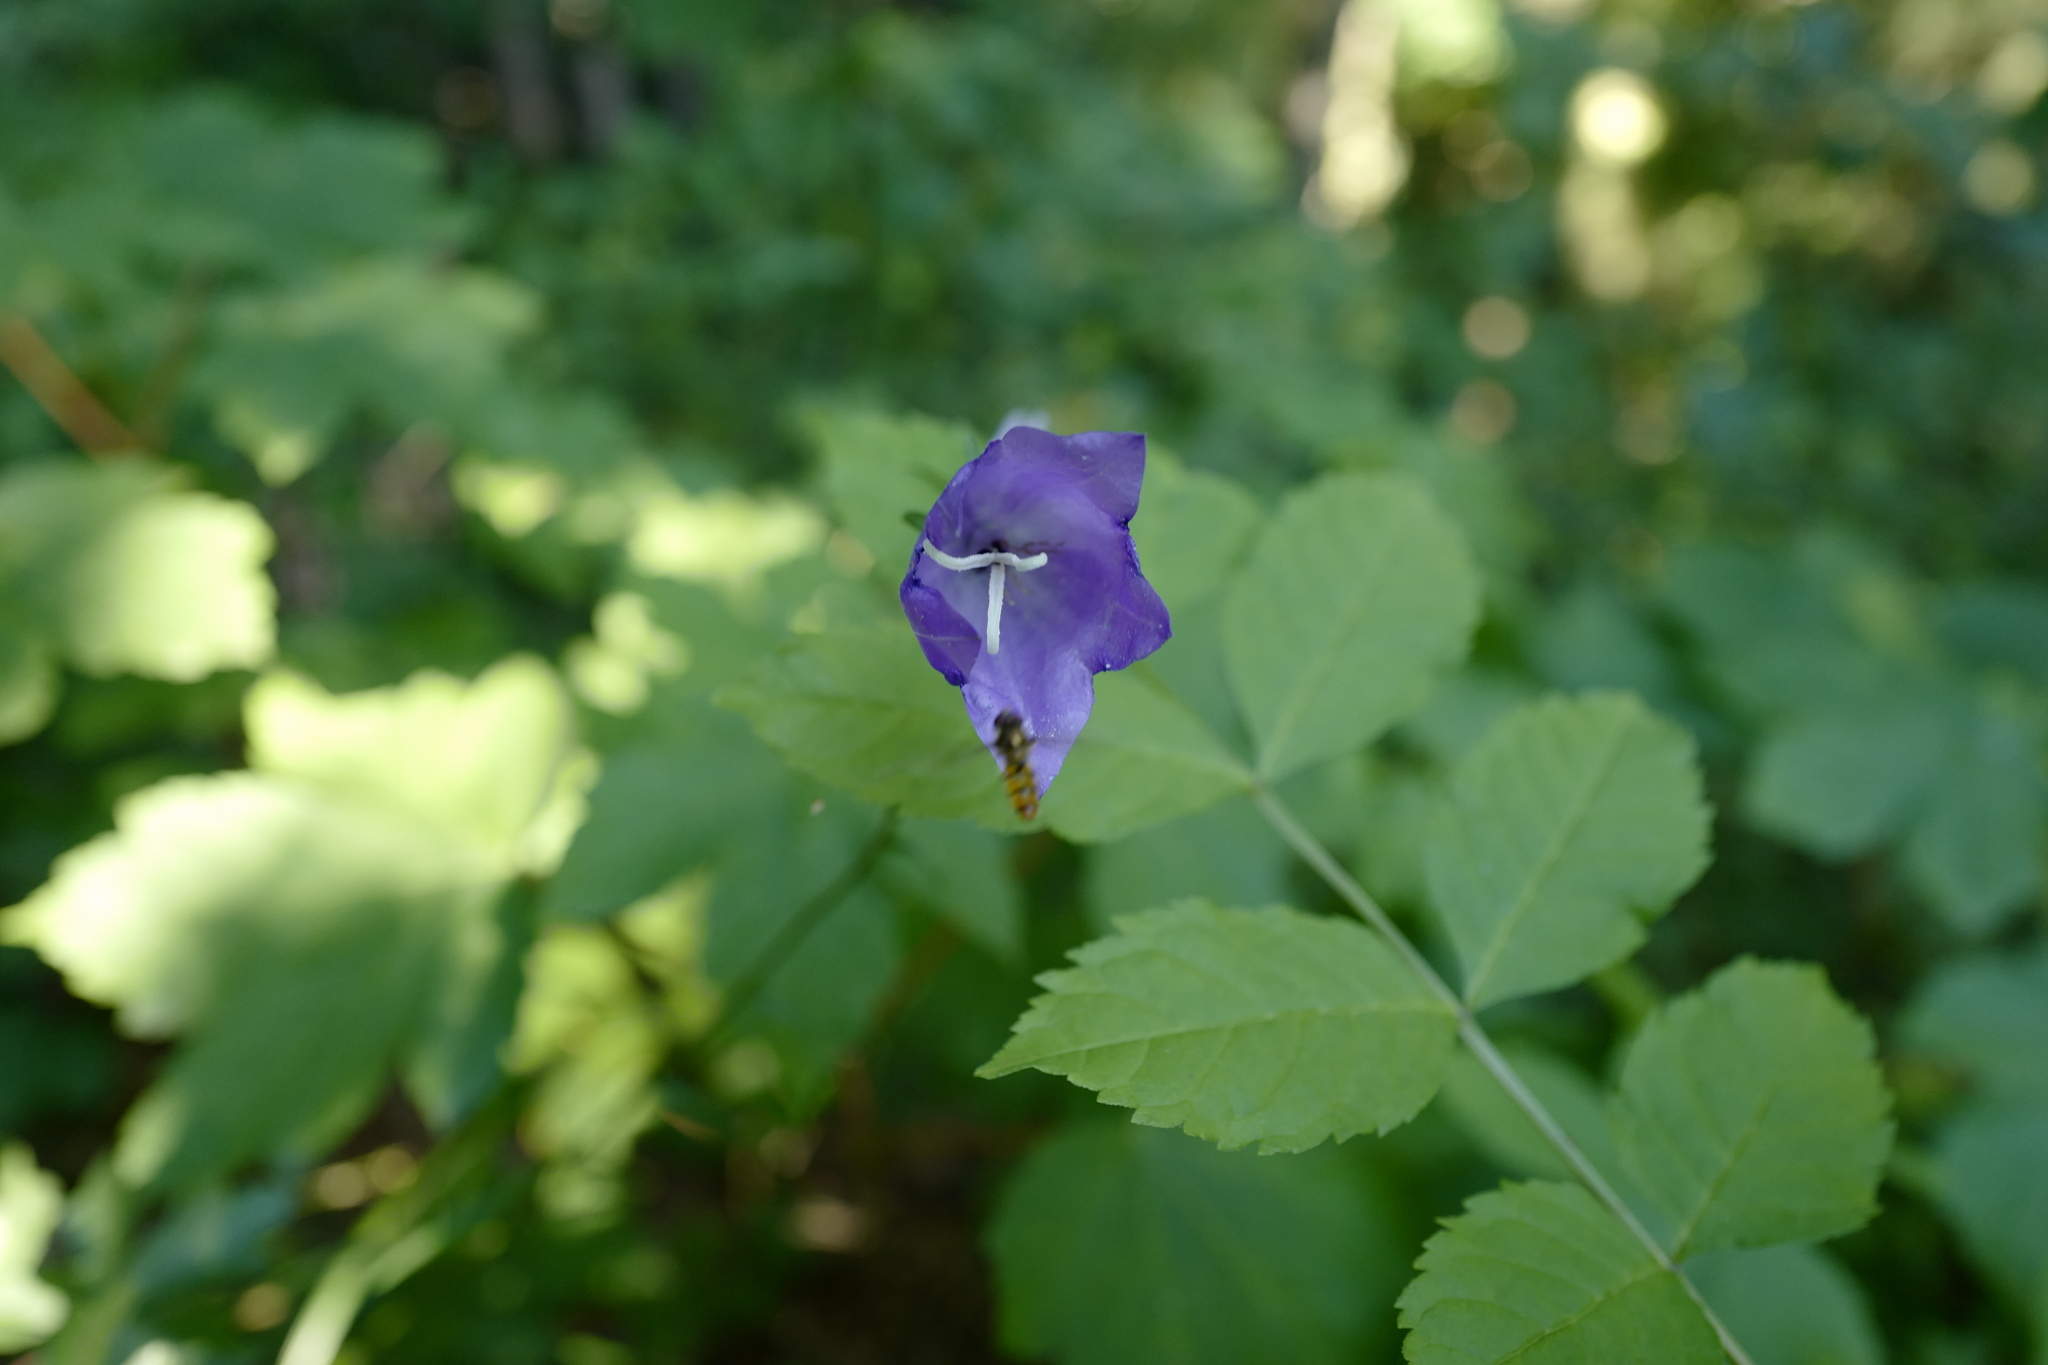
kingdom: Animalia
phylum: Arthropoda
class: Insecta
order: Diptera
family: Syrphidae
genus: Episyrphus
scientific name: Episyrphus balteatus
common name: Marmalade hoverfly
